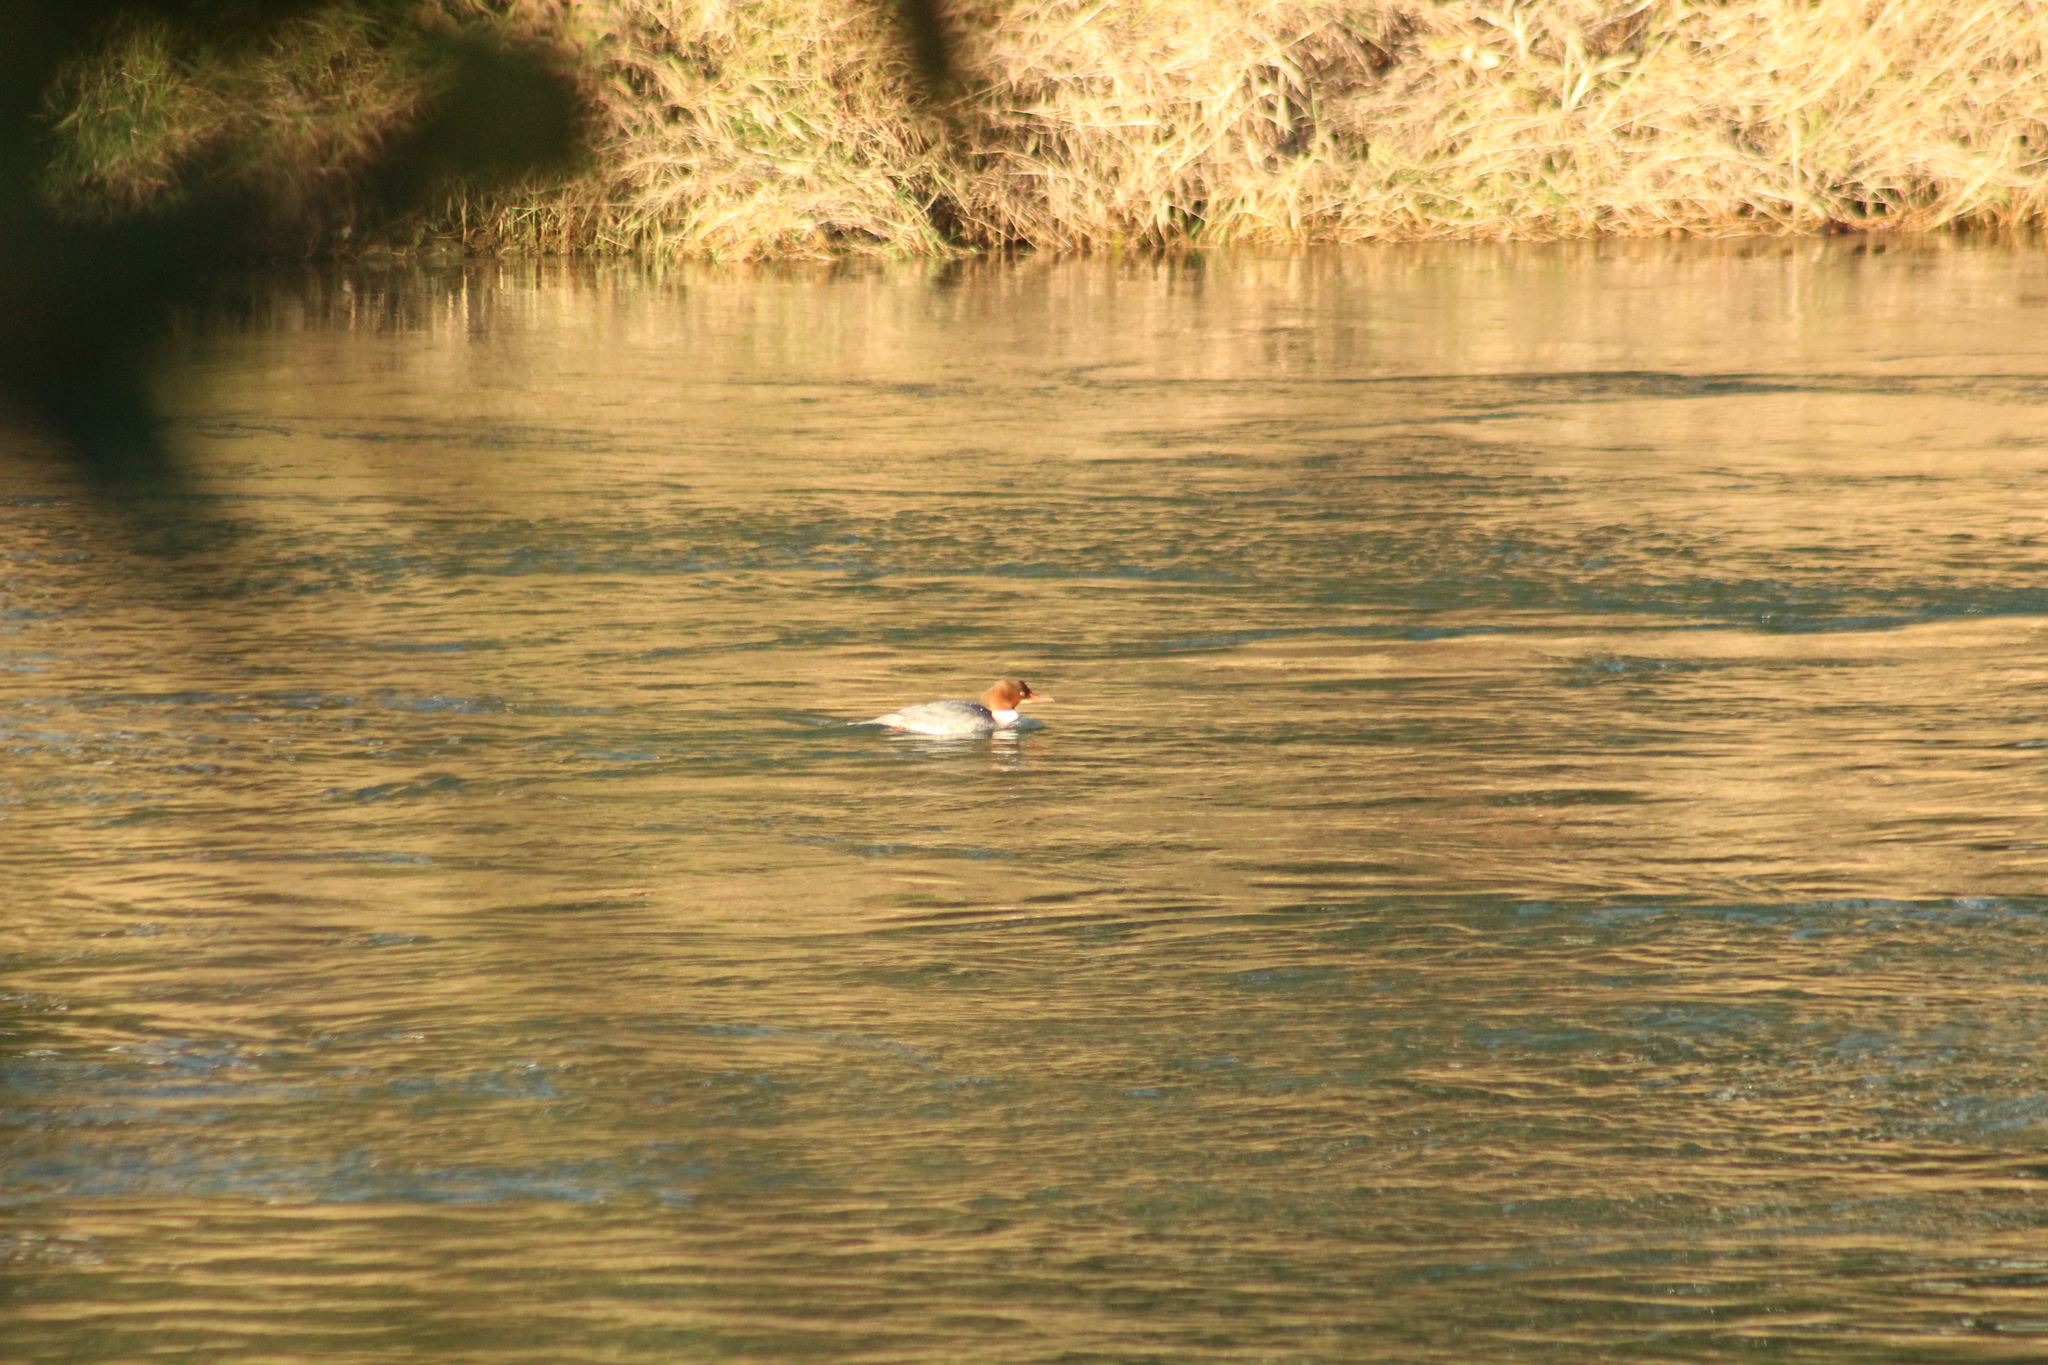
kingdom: Animalia
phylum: Chordata
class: Aves
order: Anseriformes
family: Anatidae
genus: Mergus
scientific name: Mergus merganser
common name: Common merganser
